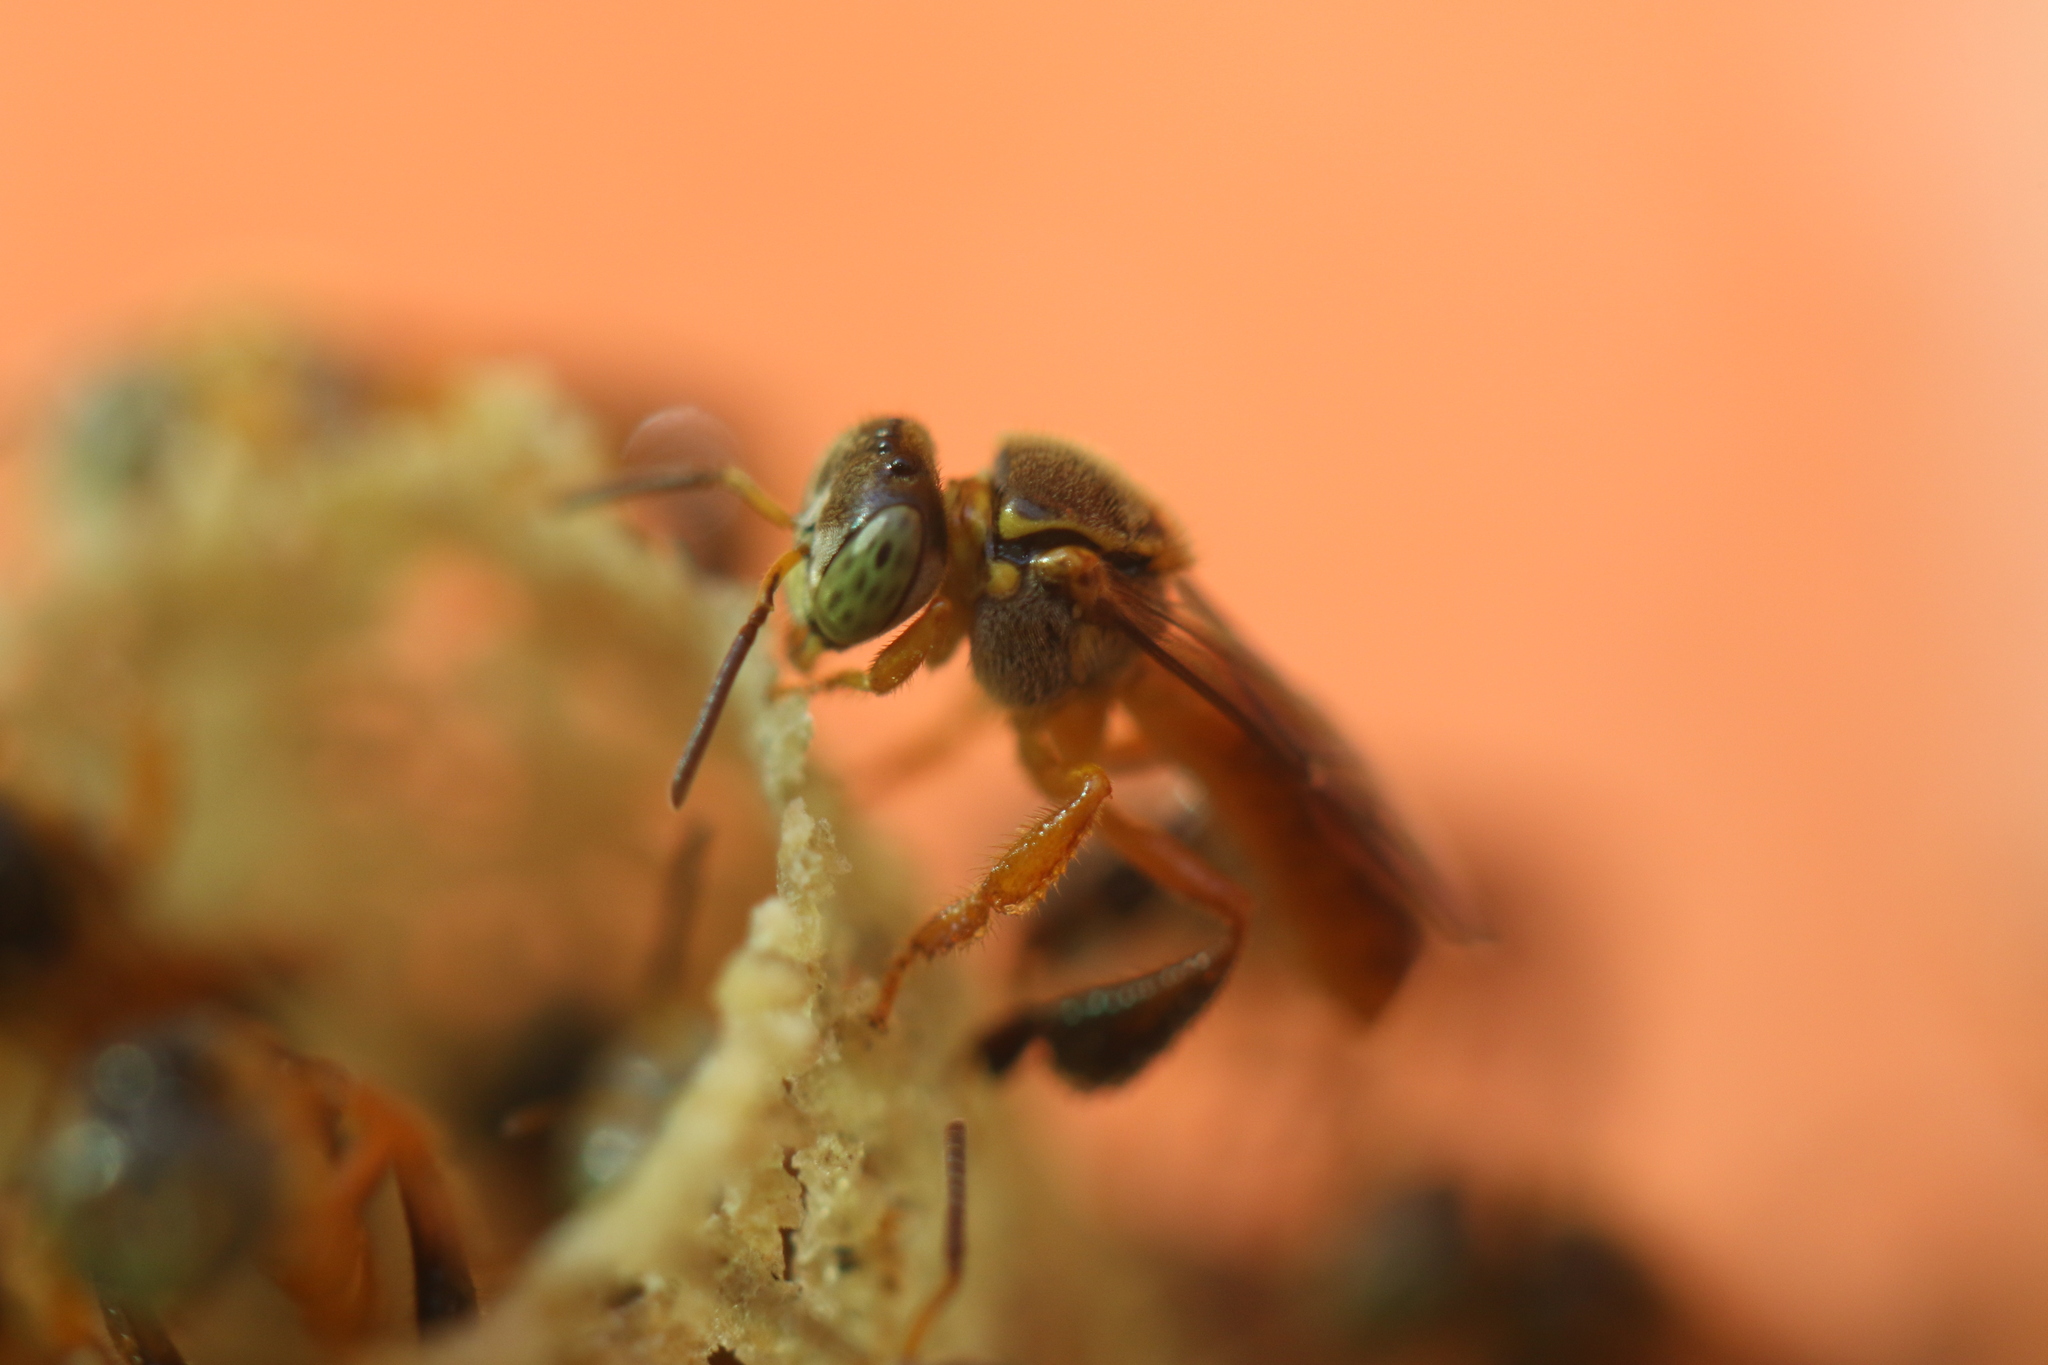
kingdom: Animalia
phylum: Arthropoda
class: Insecta
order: Hymenoptera
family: Apidae
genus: Tetragonisca
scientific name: Tetragonisca angustula
